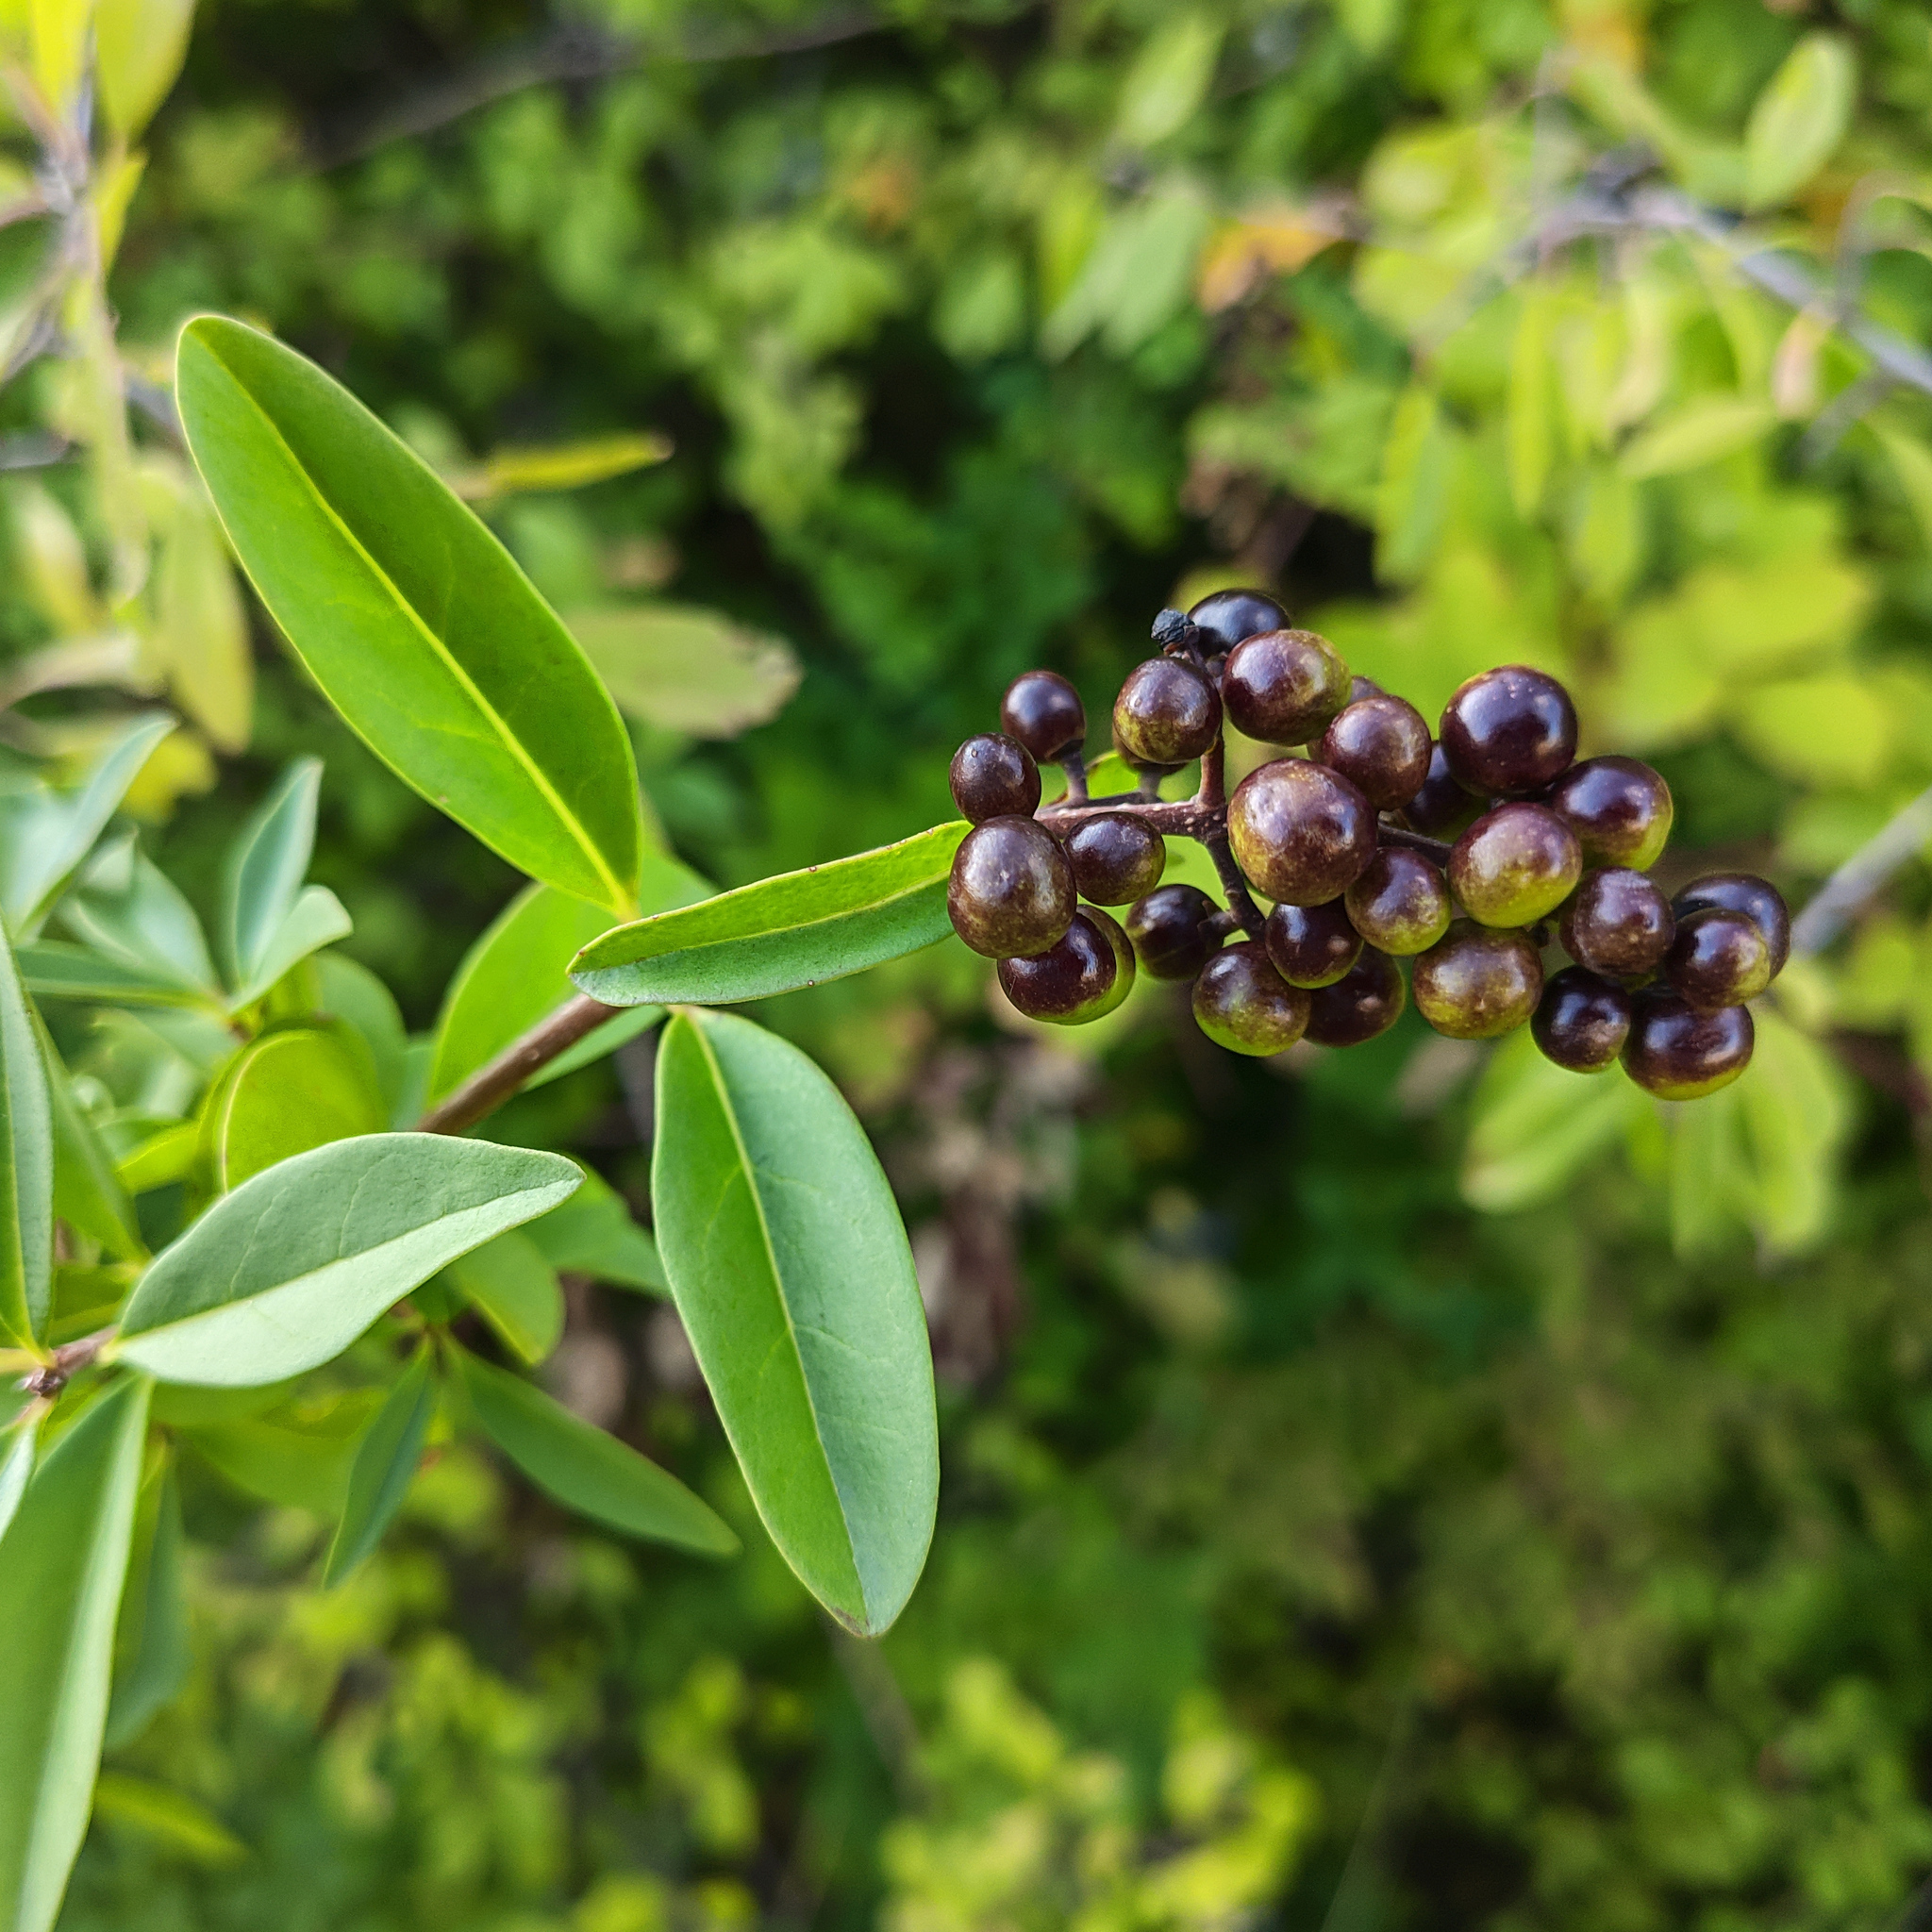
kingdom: Plantae
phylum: Tracheophyta
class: Magnoliopsida
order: Lamiales
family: Oleaceae
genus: Ligustrum
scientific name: Ligustrum vulgare
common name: Wild privet
